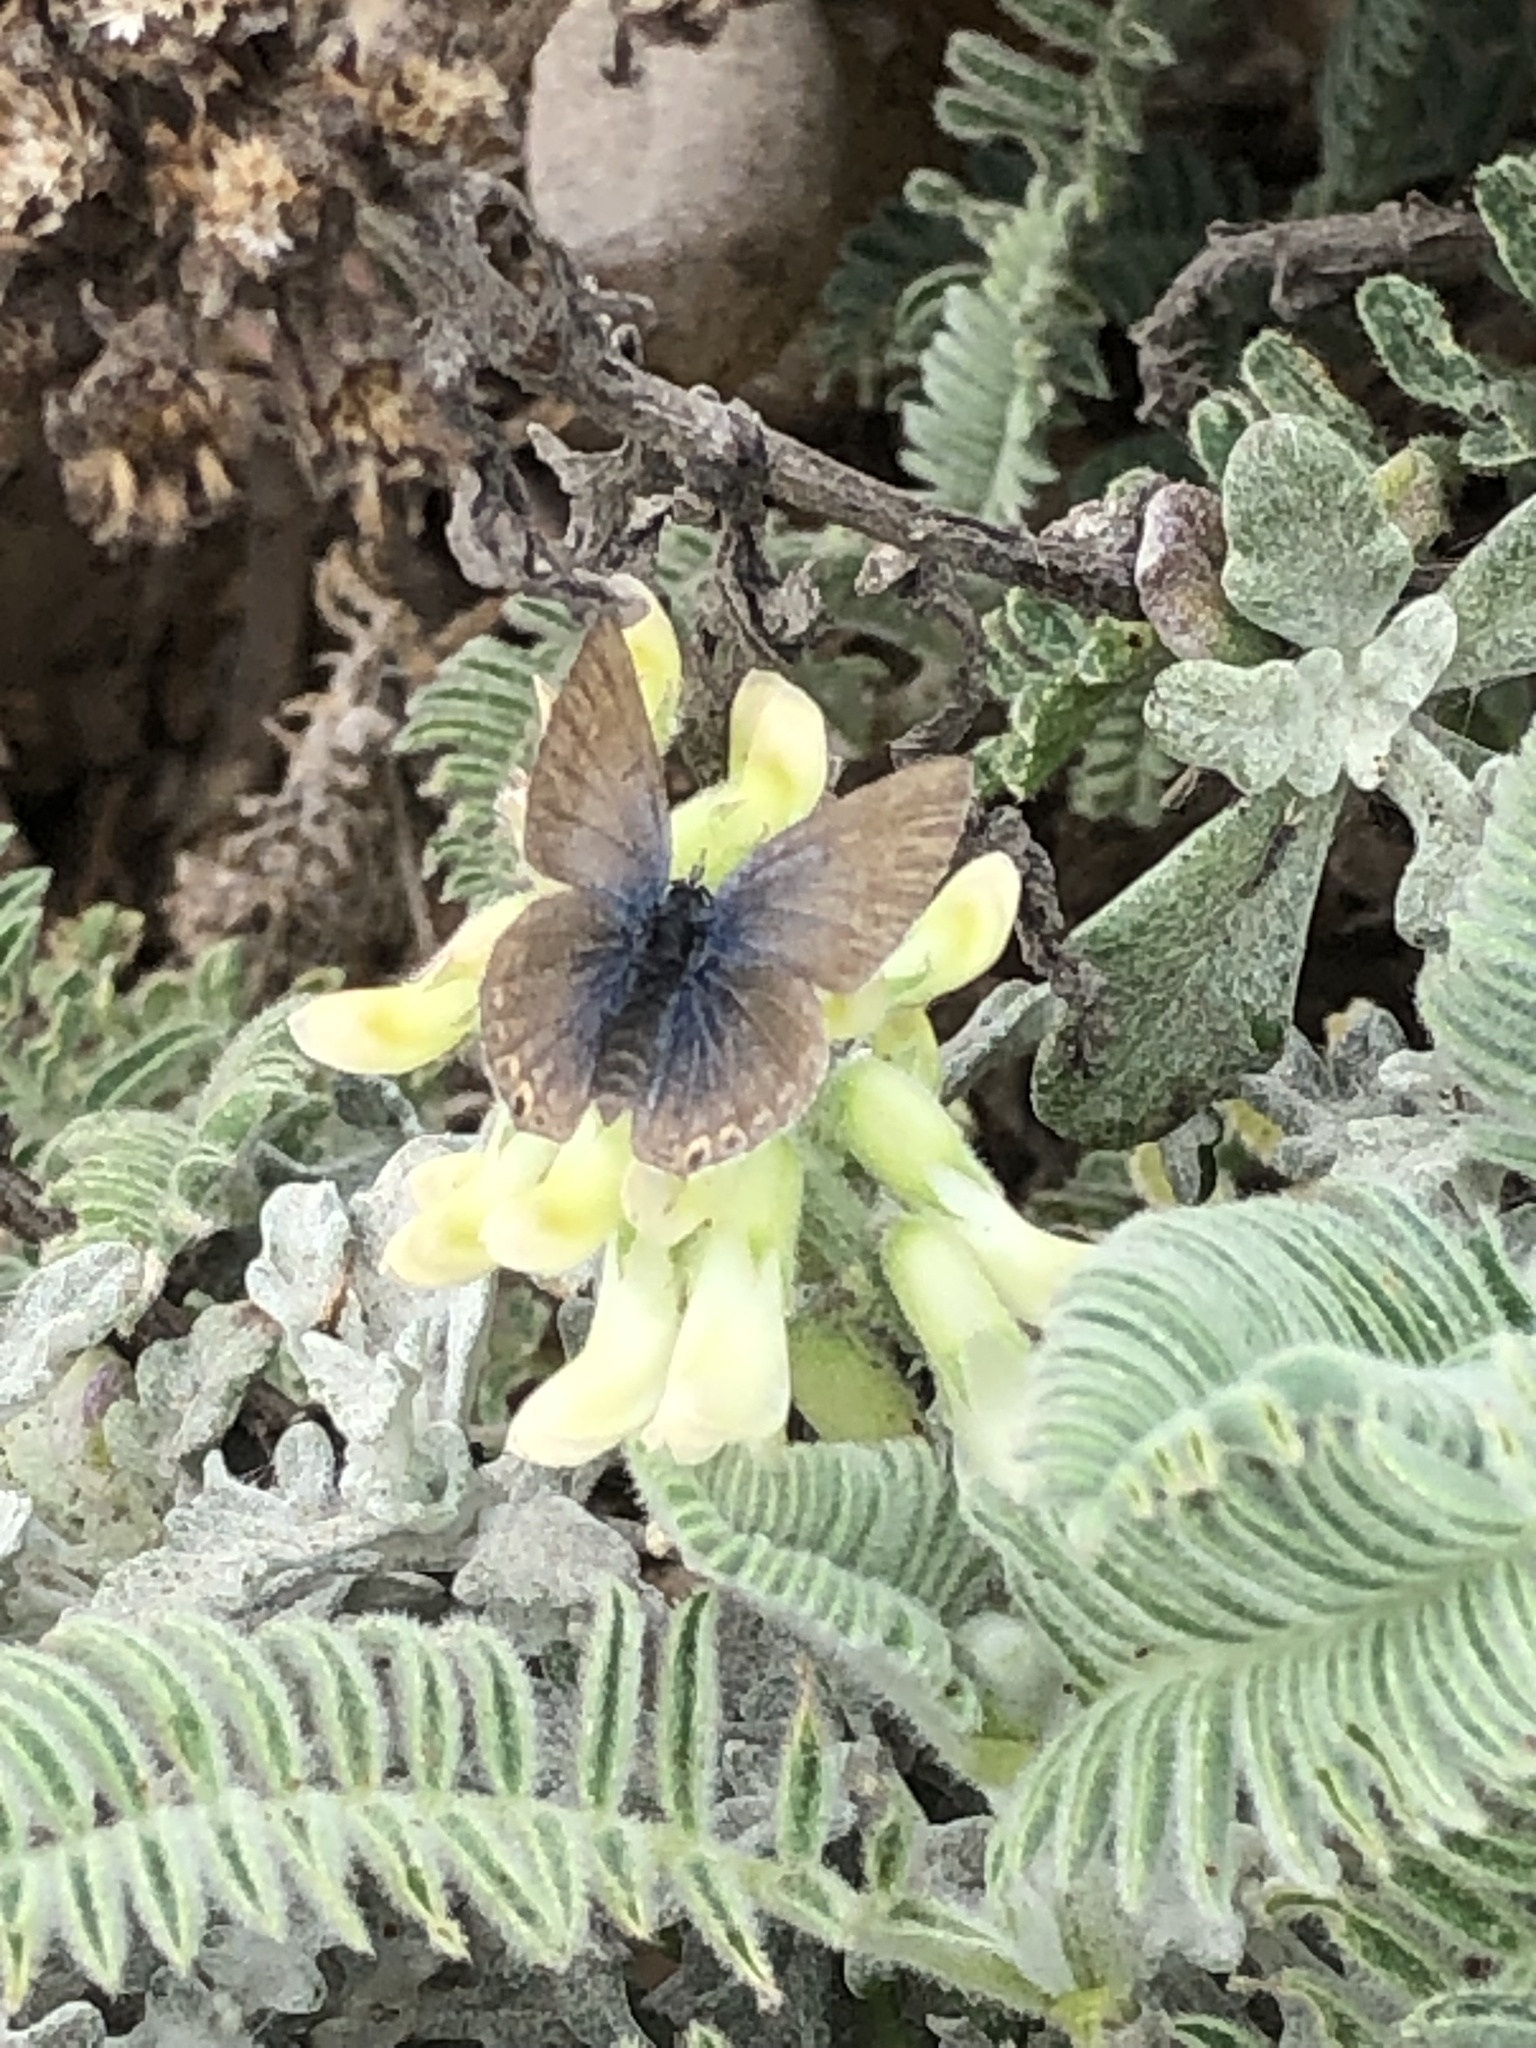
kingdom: Animalia
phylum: Arthropoda
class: Insecta
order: Lepidoptera
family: Lycaenidae
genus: Elkalyce
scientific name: Elkalyce amyntula
